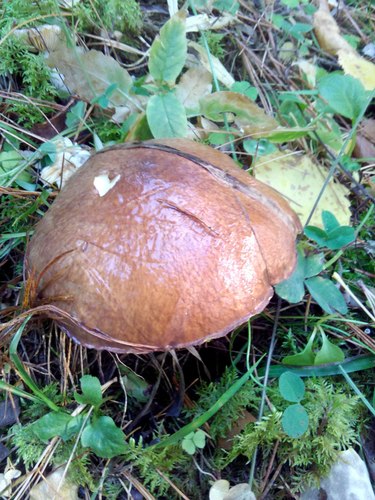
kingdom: Fungi
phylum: Basidiomycota
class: Agaricomycetes
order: Boletales
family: Suillaceae
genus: Suillus
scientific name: Suillus luteus
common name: Slippery jack
